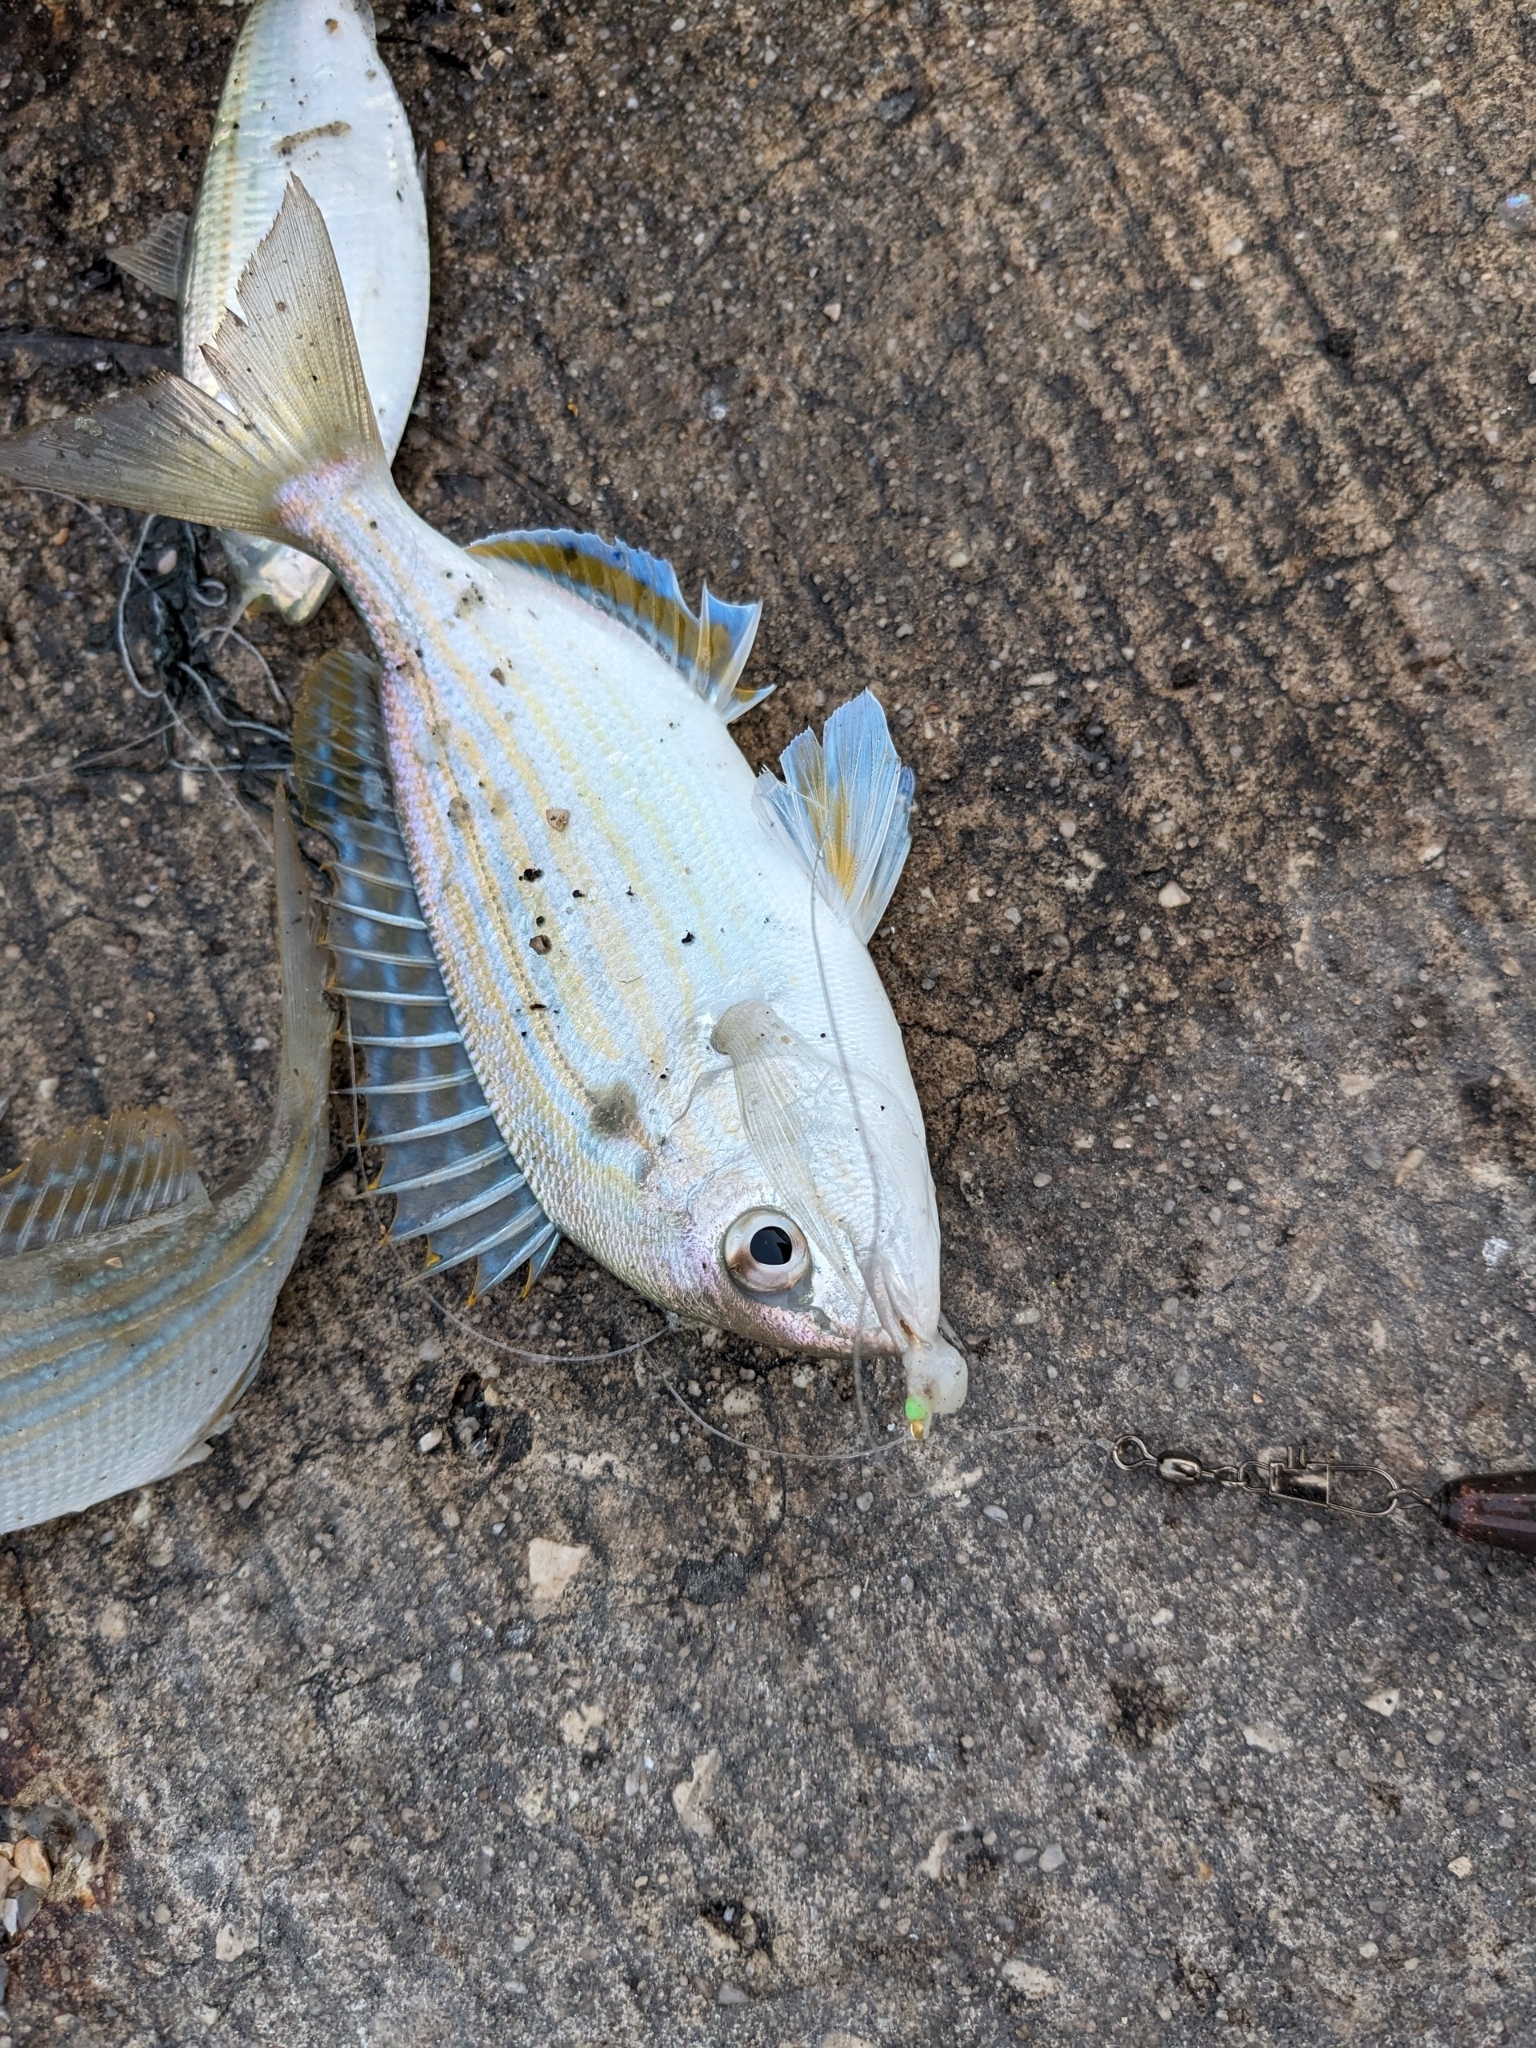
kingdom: Animalia
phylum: Chordata
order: Perciformes
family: Sparidae
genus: Lagodon
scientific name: Lagodon rhomboides
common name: Pinfish
